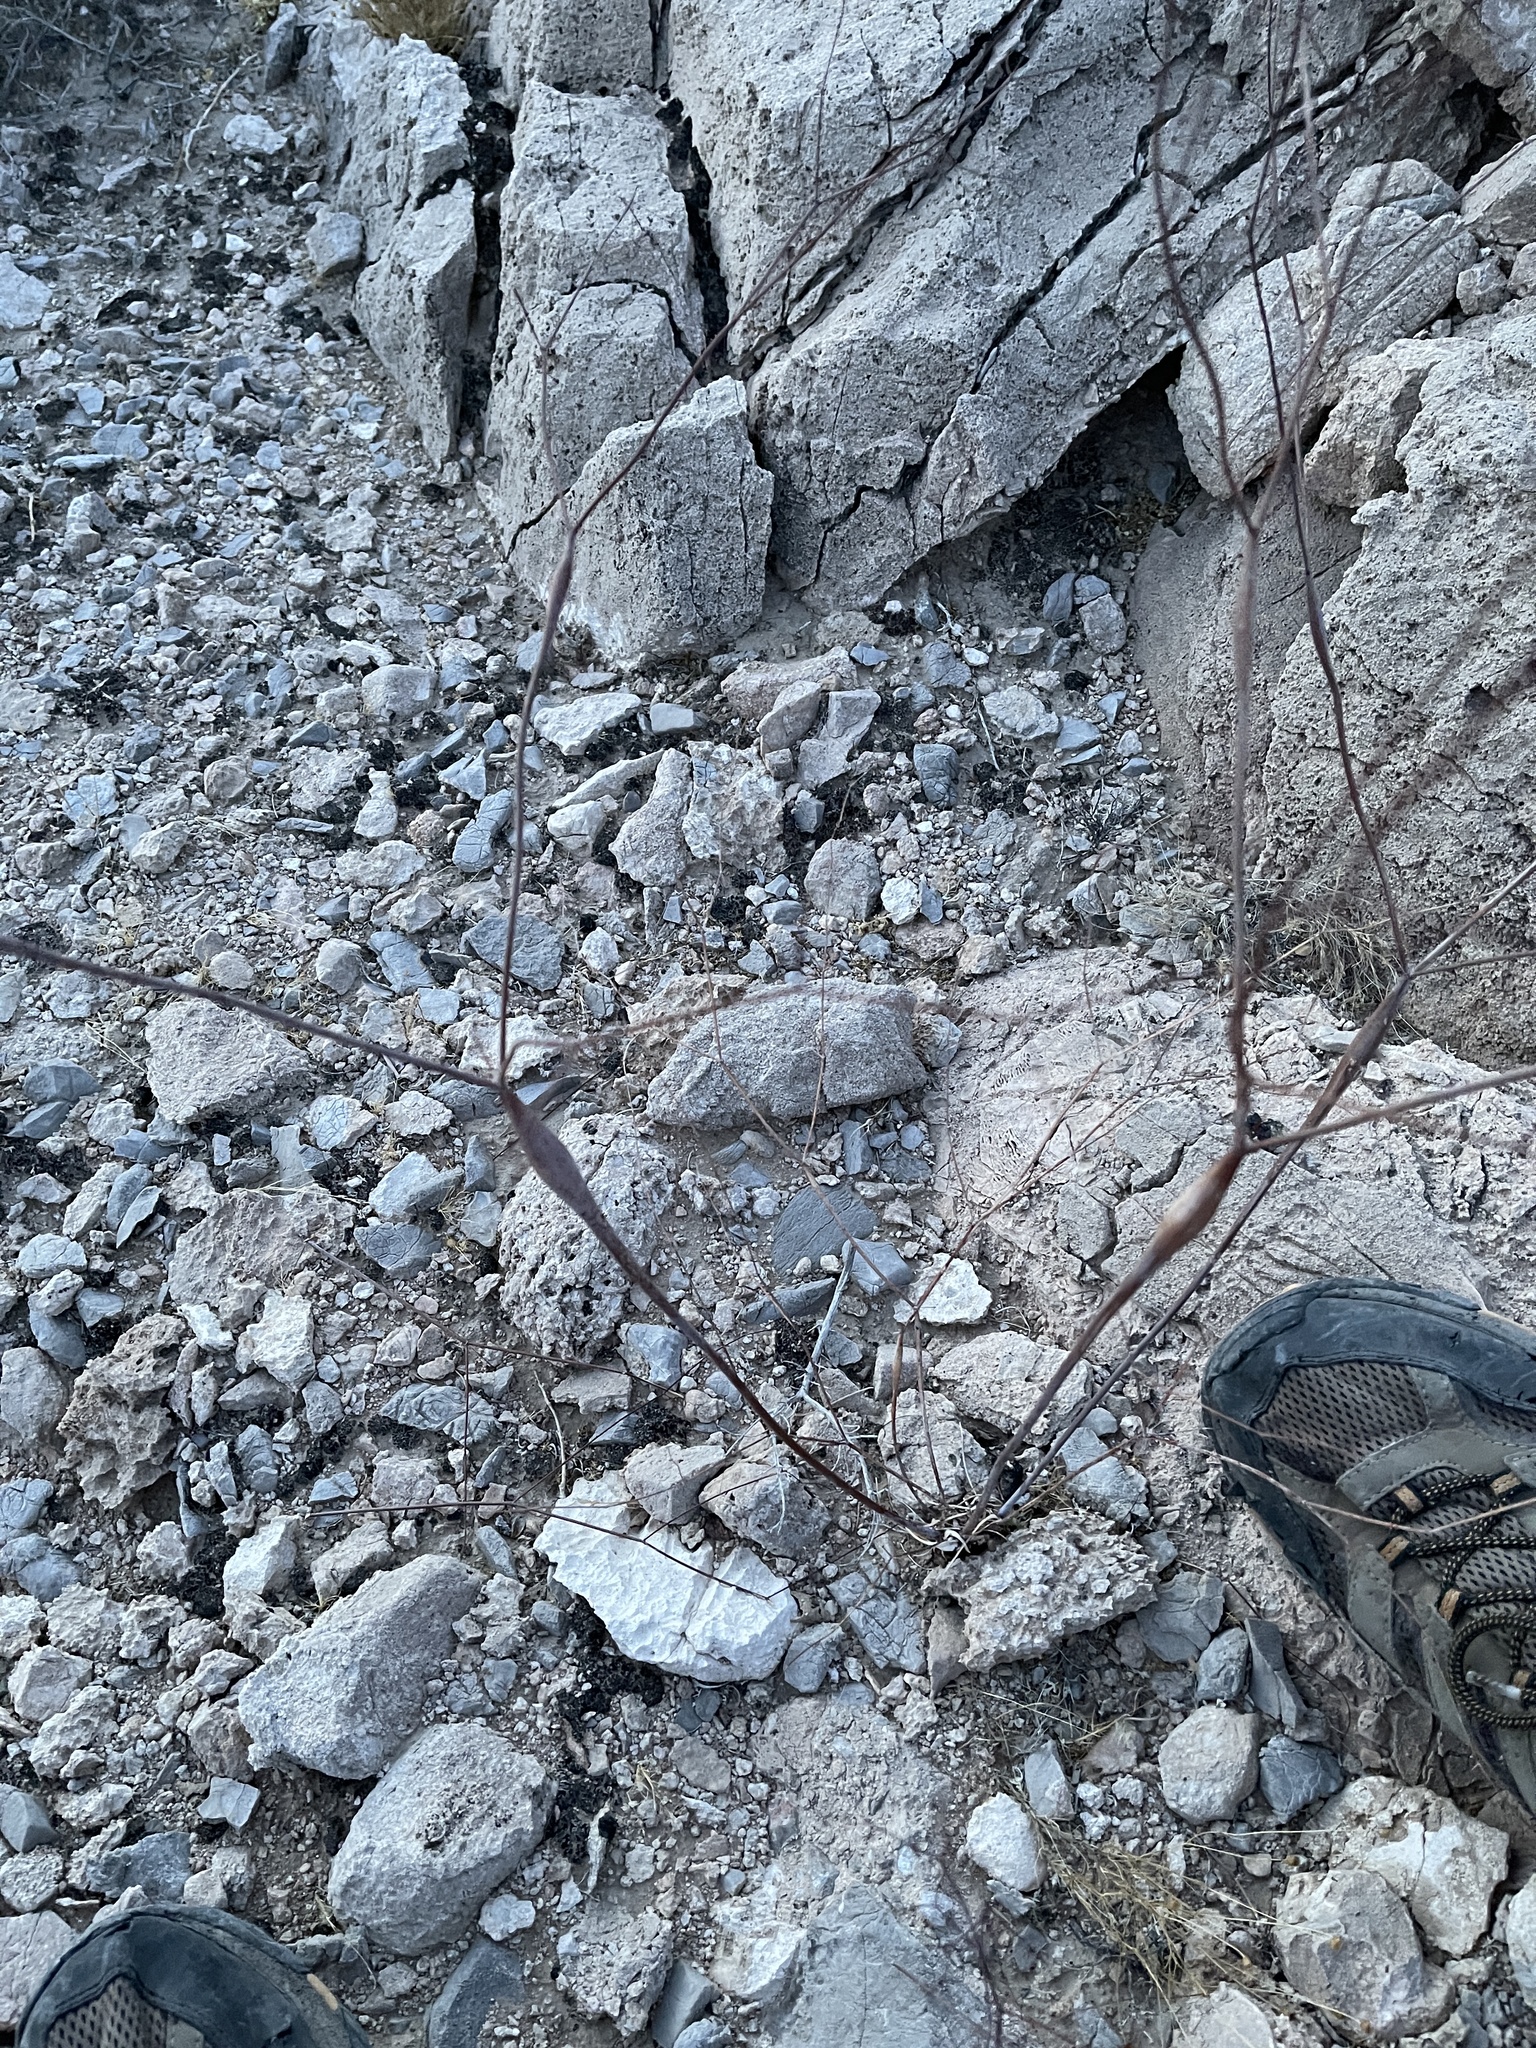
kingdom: Plantae
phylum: Tracheophyta
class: Magnoliopsida
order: Caryophyllales
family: Polygonaceae
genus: Eriogonum
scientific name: Eriogonum inflatum
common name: Desert trumpet
